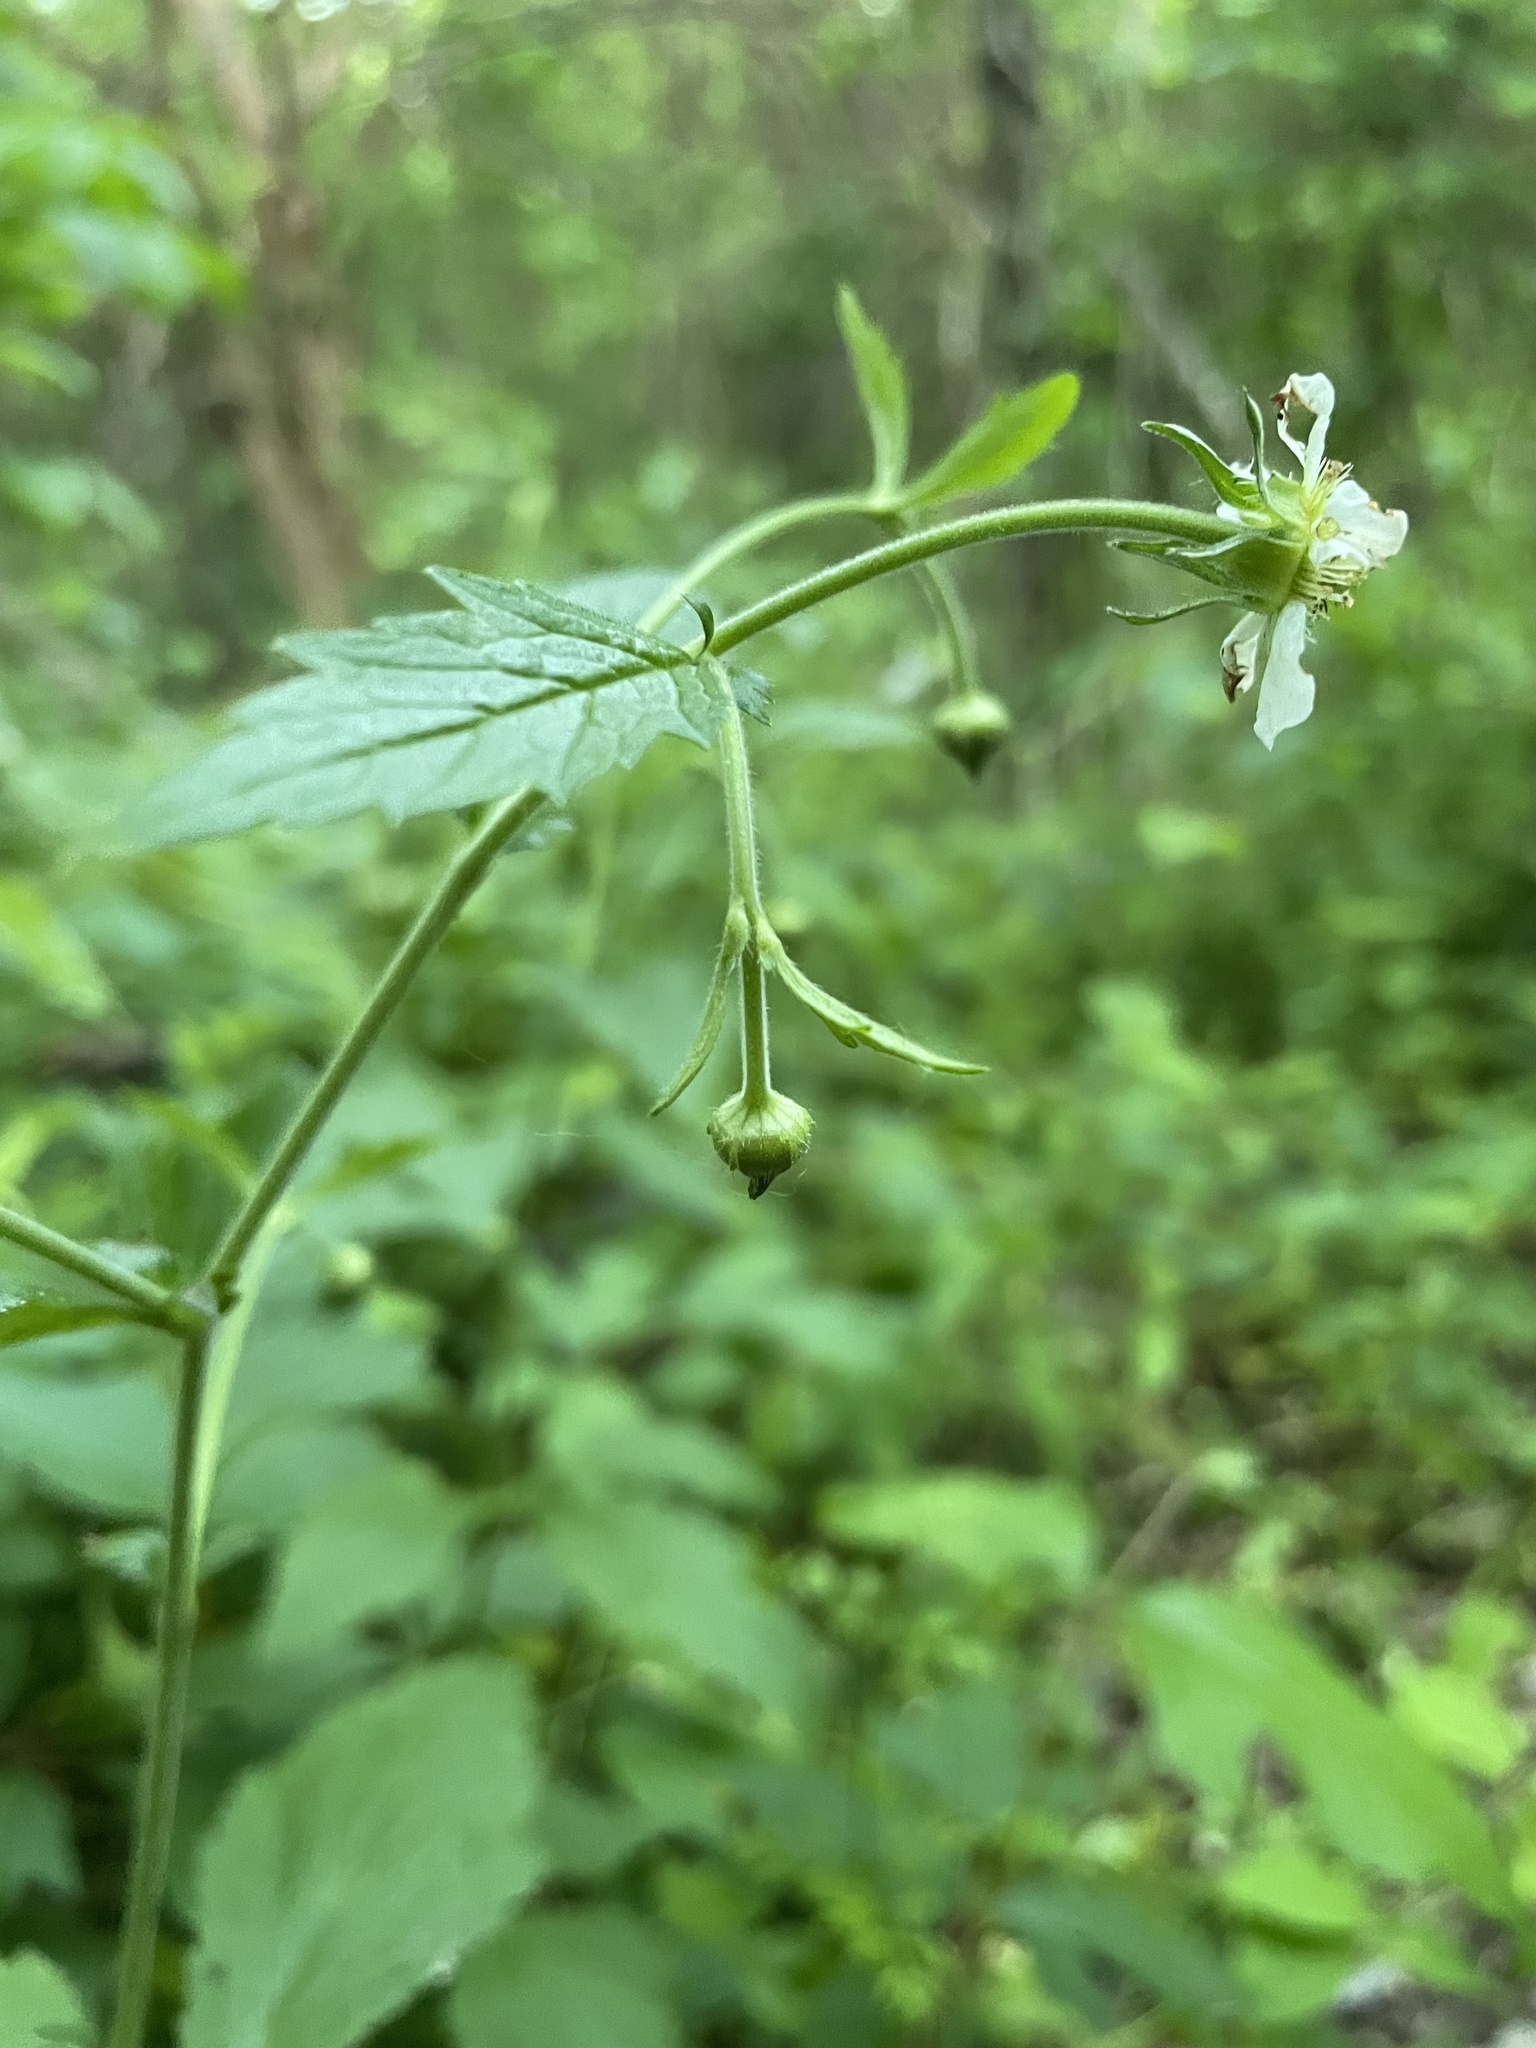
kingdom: Plantae
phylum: Tracheophyta
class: Magnoliopsida
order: Rosales
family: Rosaceae
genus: Geum
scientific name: Geum canadense
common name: White avens
